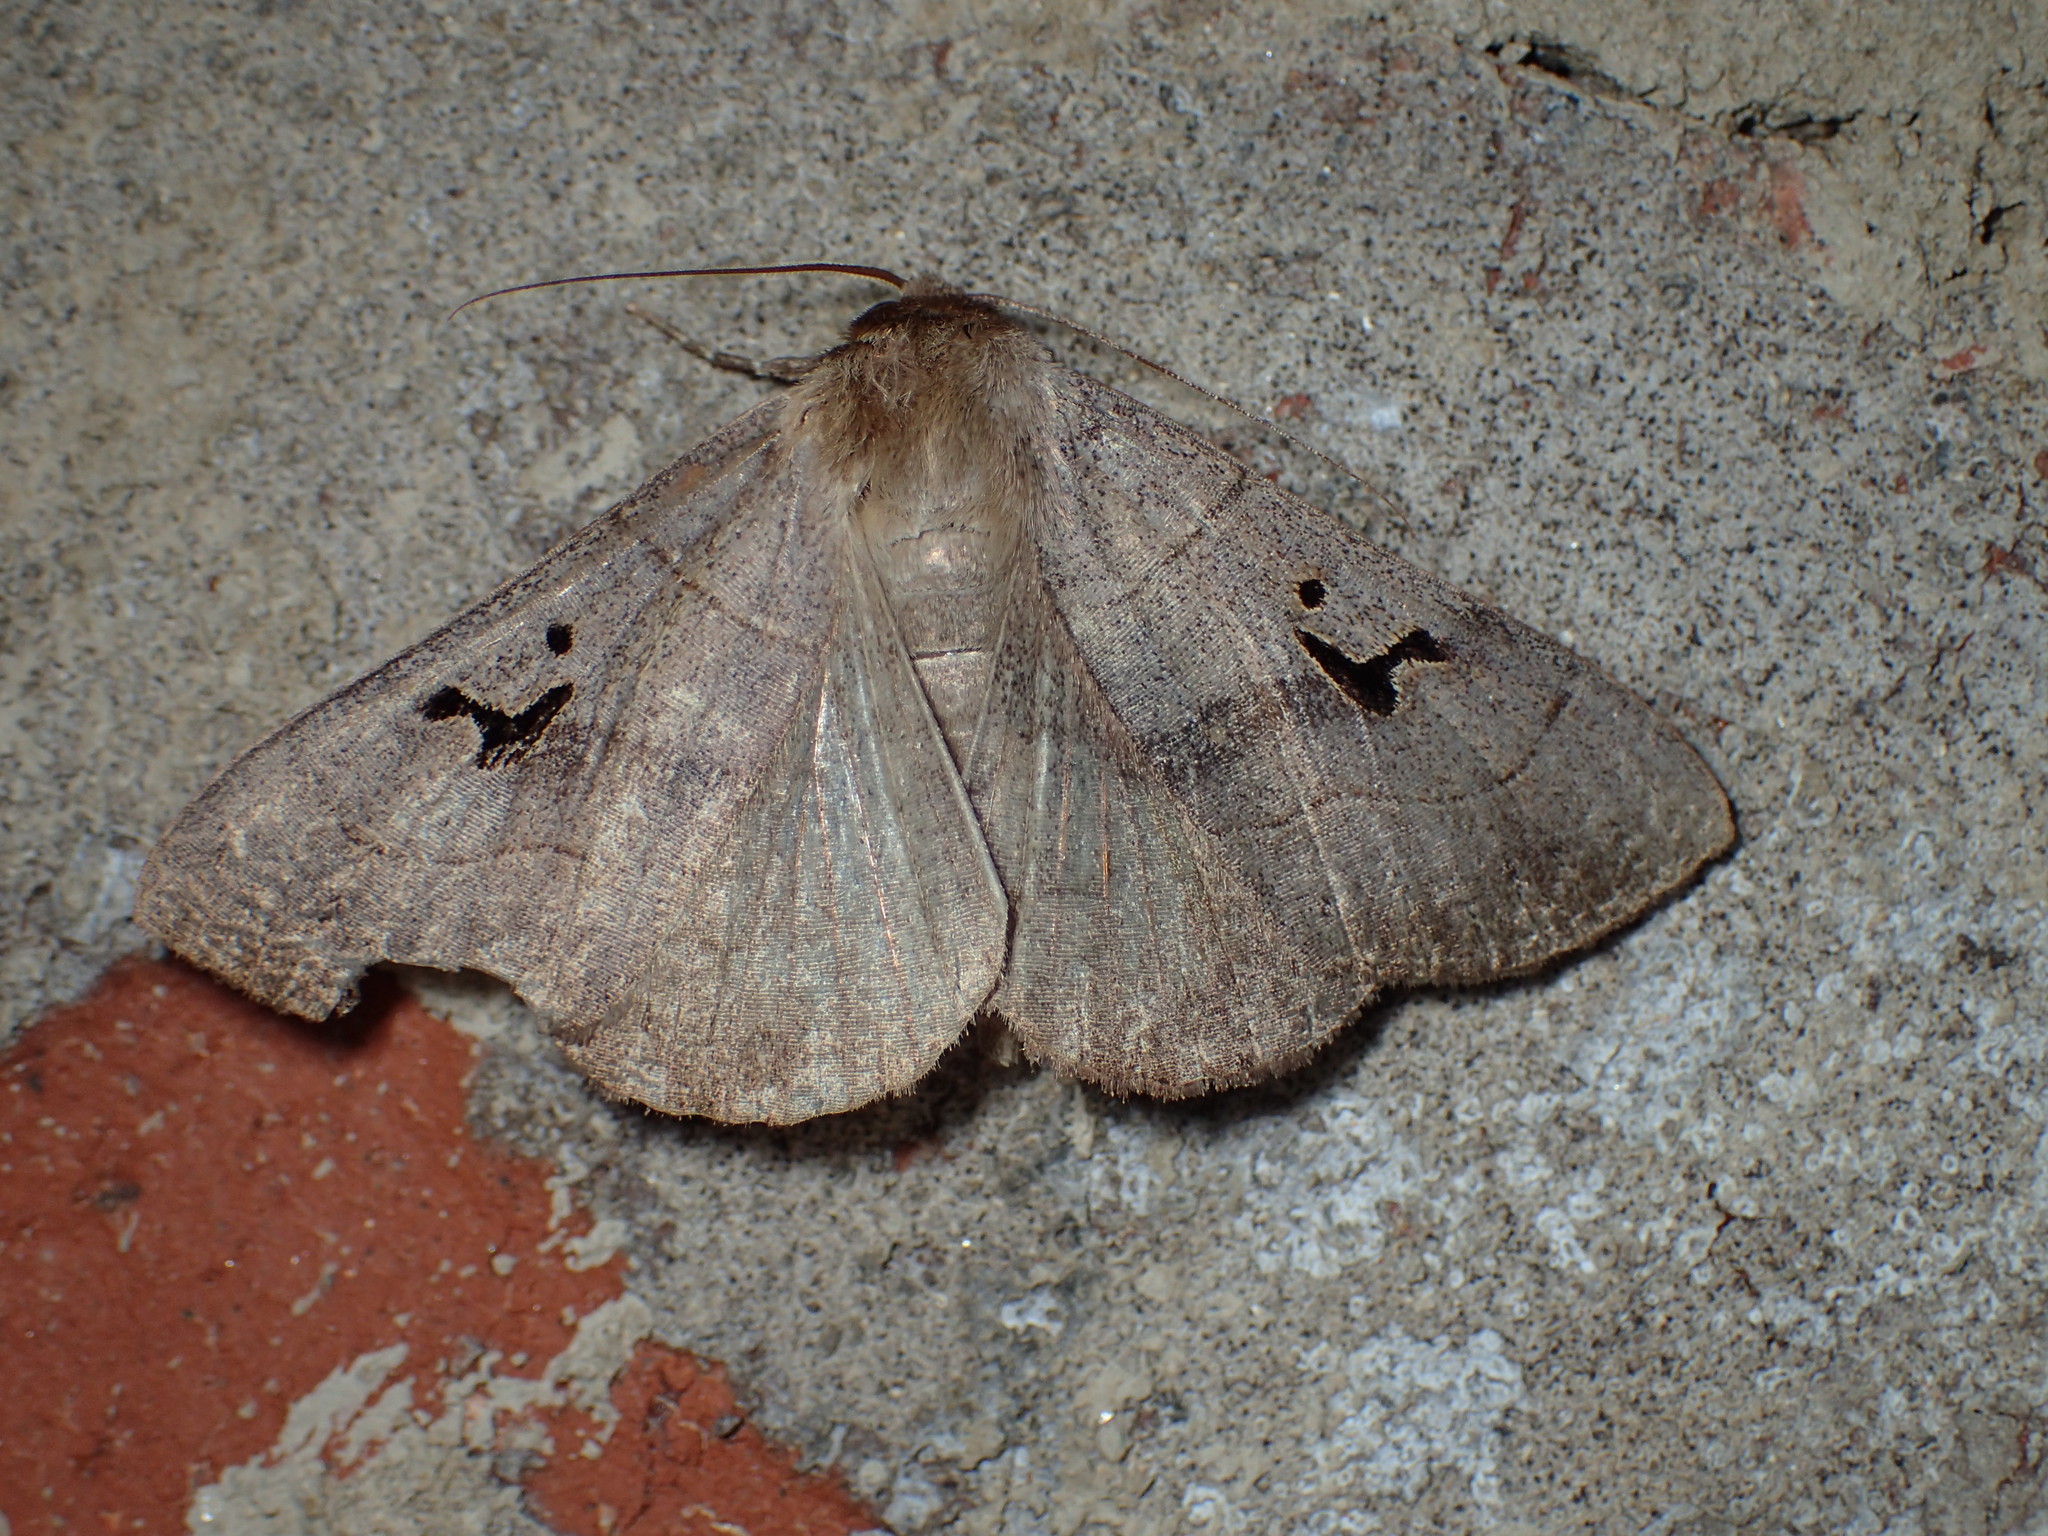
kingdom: Animalia
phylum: Arthropoda
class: Insecta
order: Lepidoptera
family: Erebidae
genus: Panopoda
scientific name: Panopoda carneicosta
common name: Brown panopoda moth
